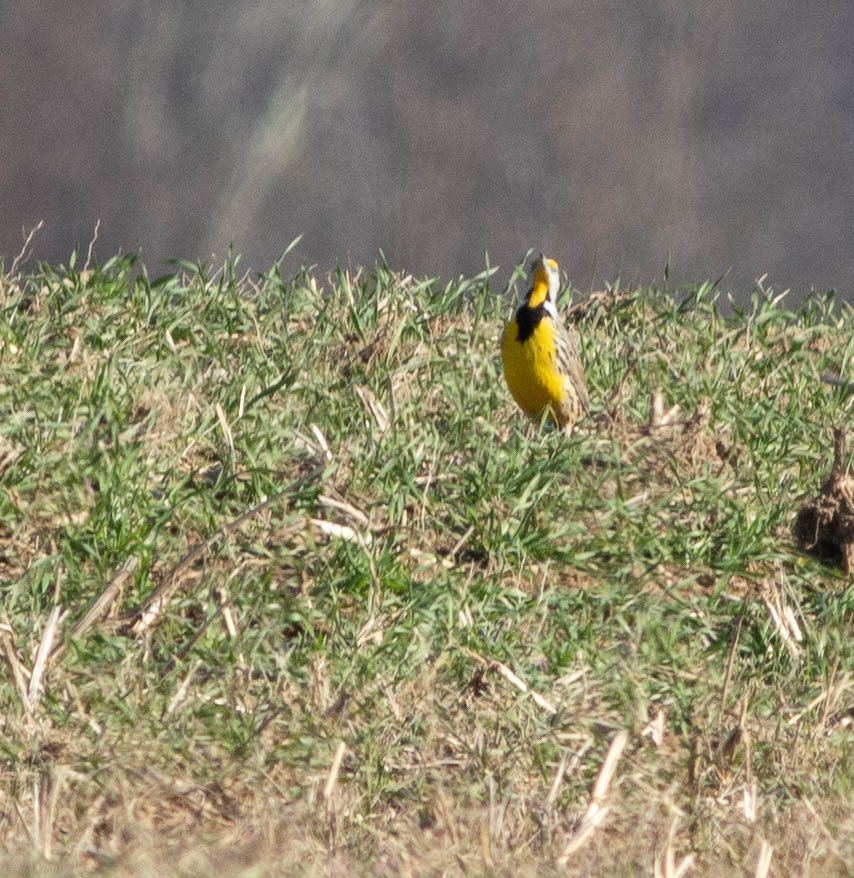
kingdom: Animalia
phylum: Chordata
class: Aves
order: Passeriformes
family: Icteridae
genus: Sturnella
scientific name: Sturnella magna
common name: Eastern meadowlark
